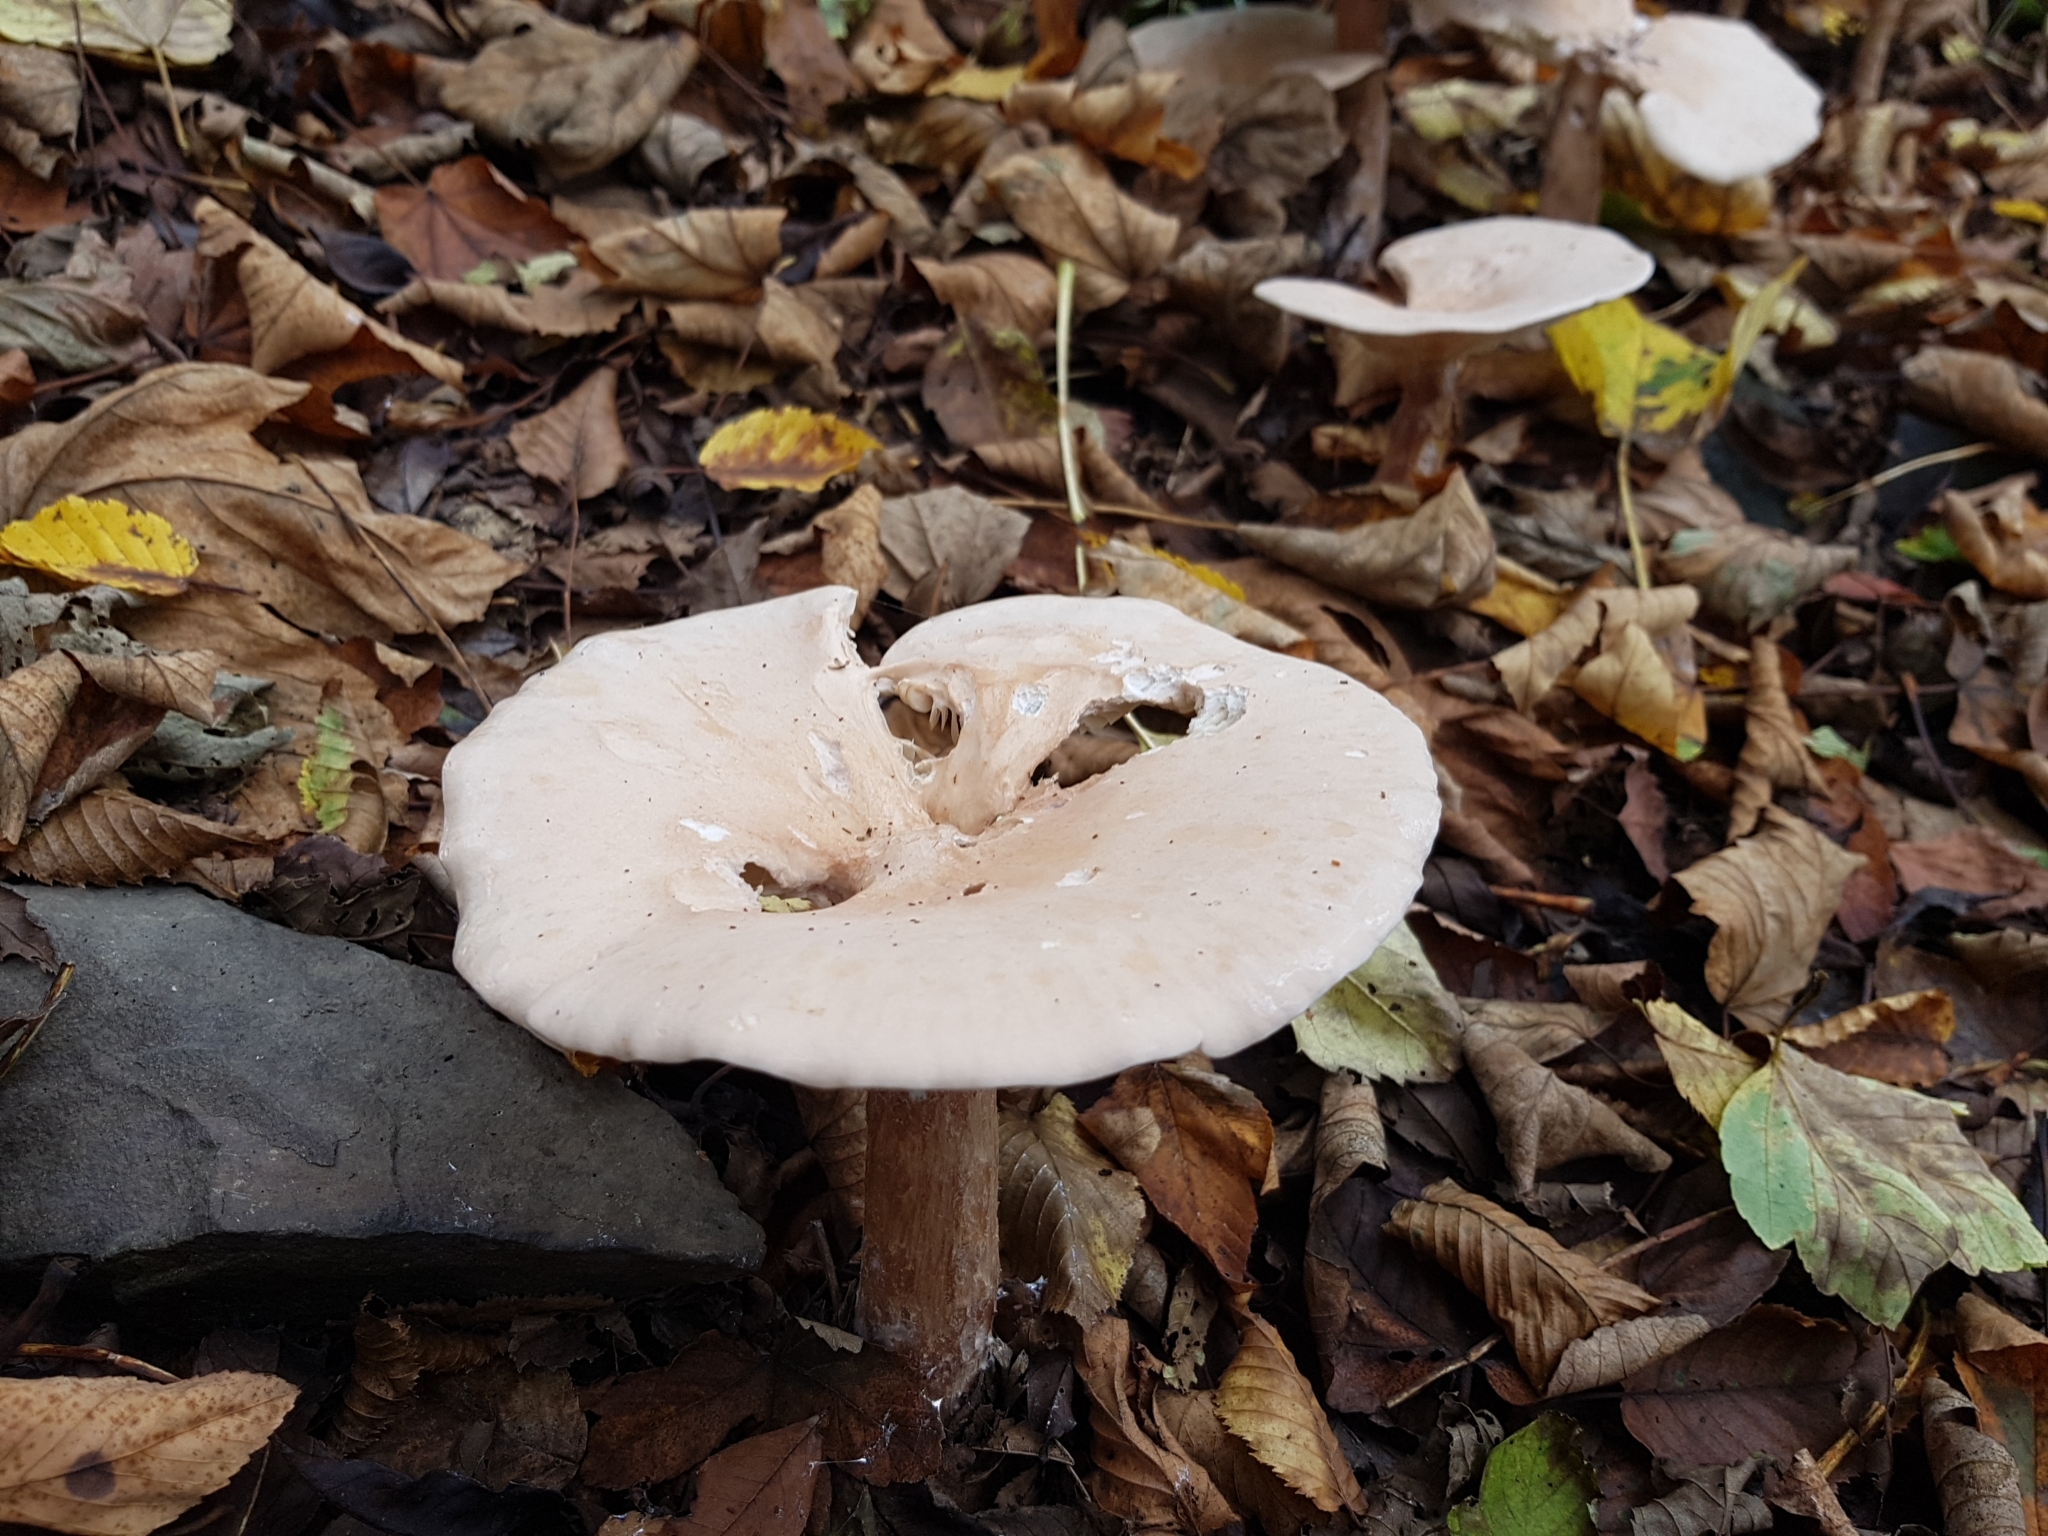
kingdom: Fungi
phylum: Basidiomycota
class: Agaricomycetes
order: Agaricales
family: Tricholomataceae
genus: Infundibulicybe
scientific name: Infundibulicybe geotropa
